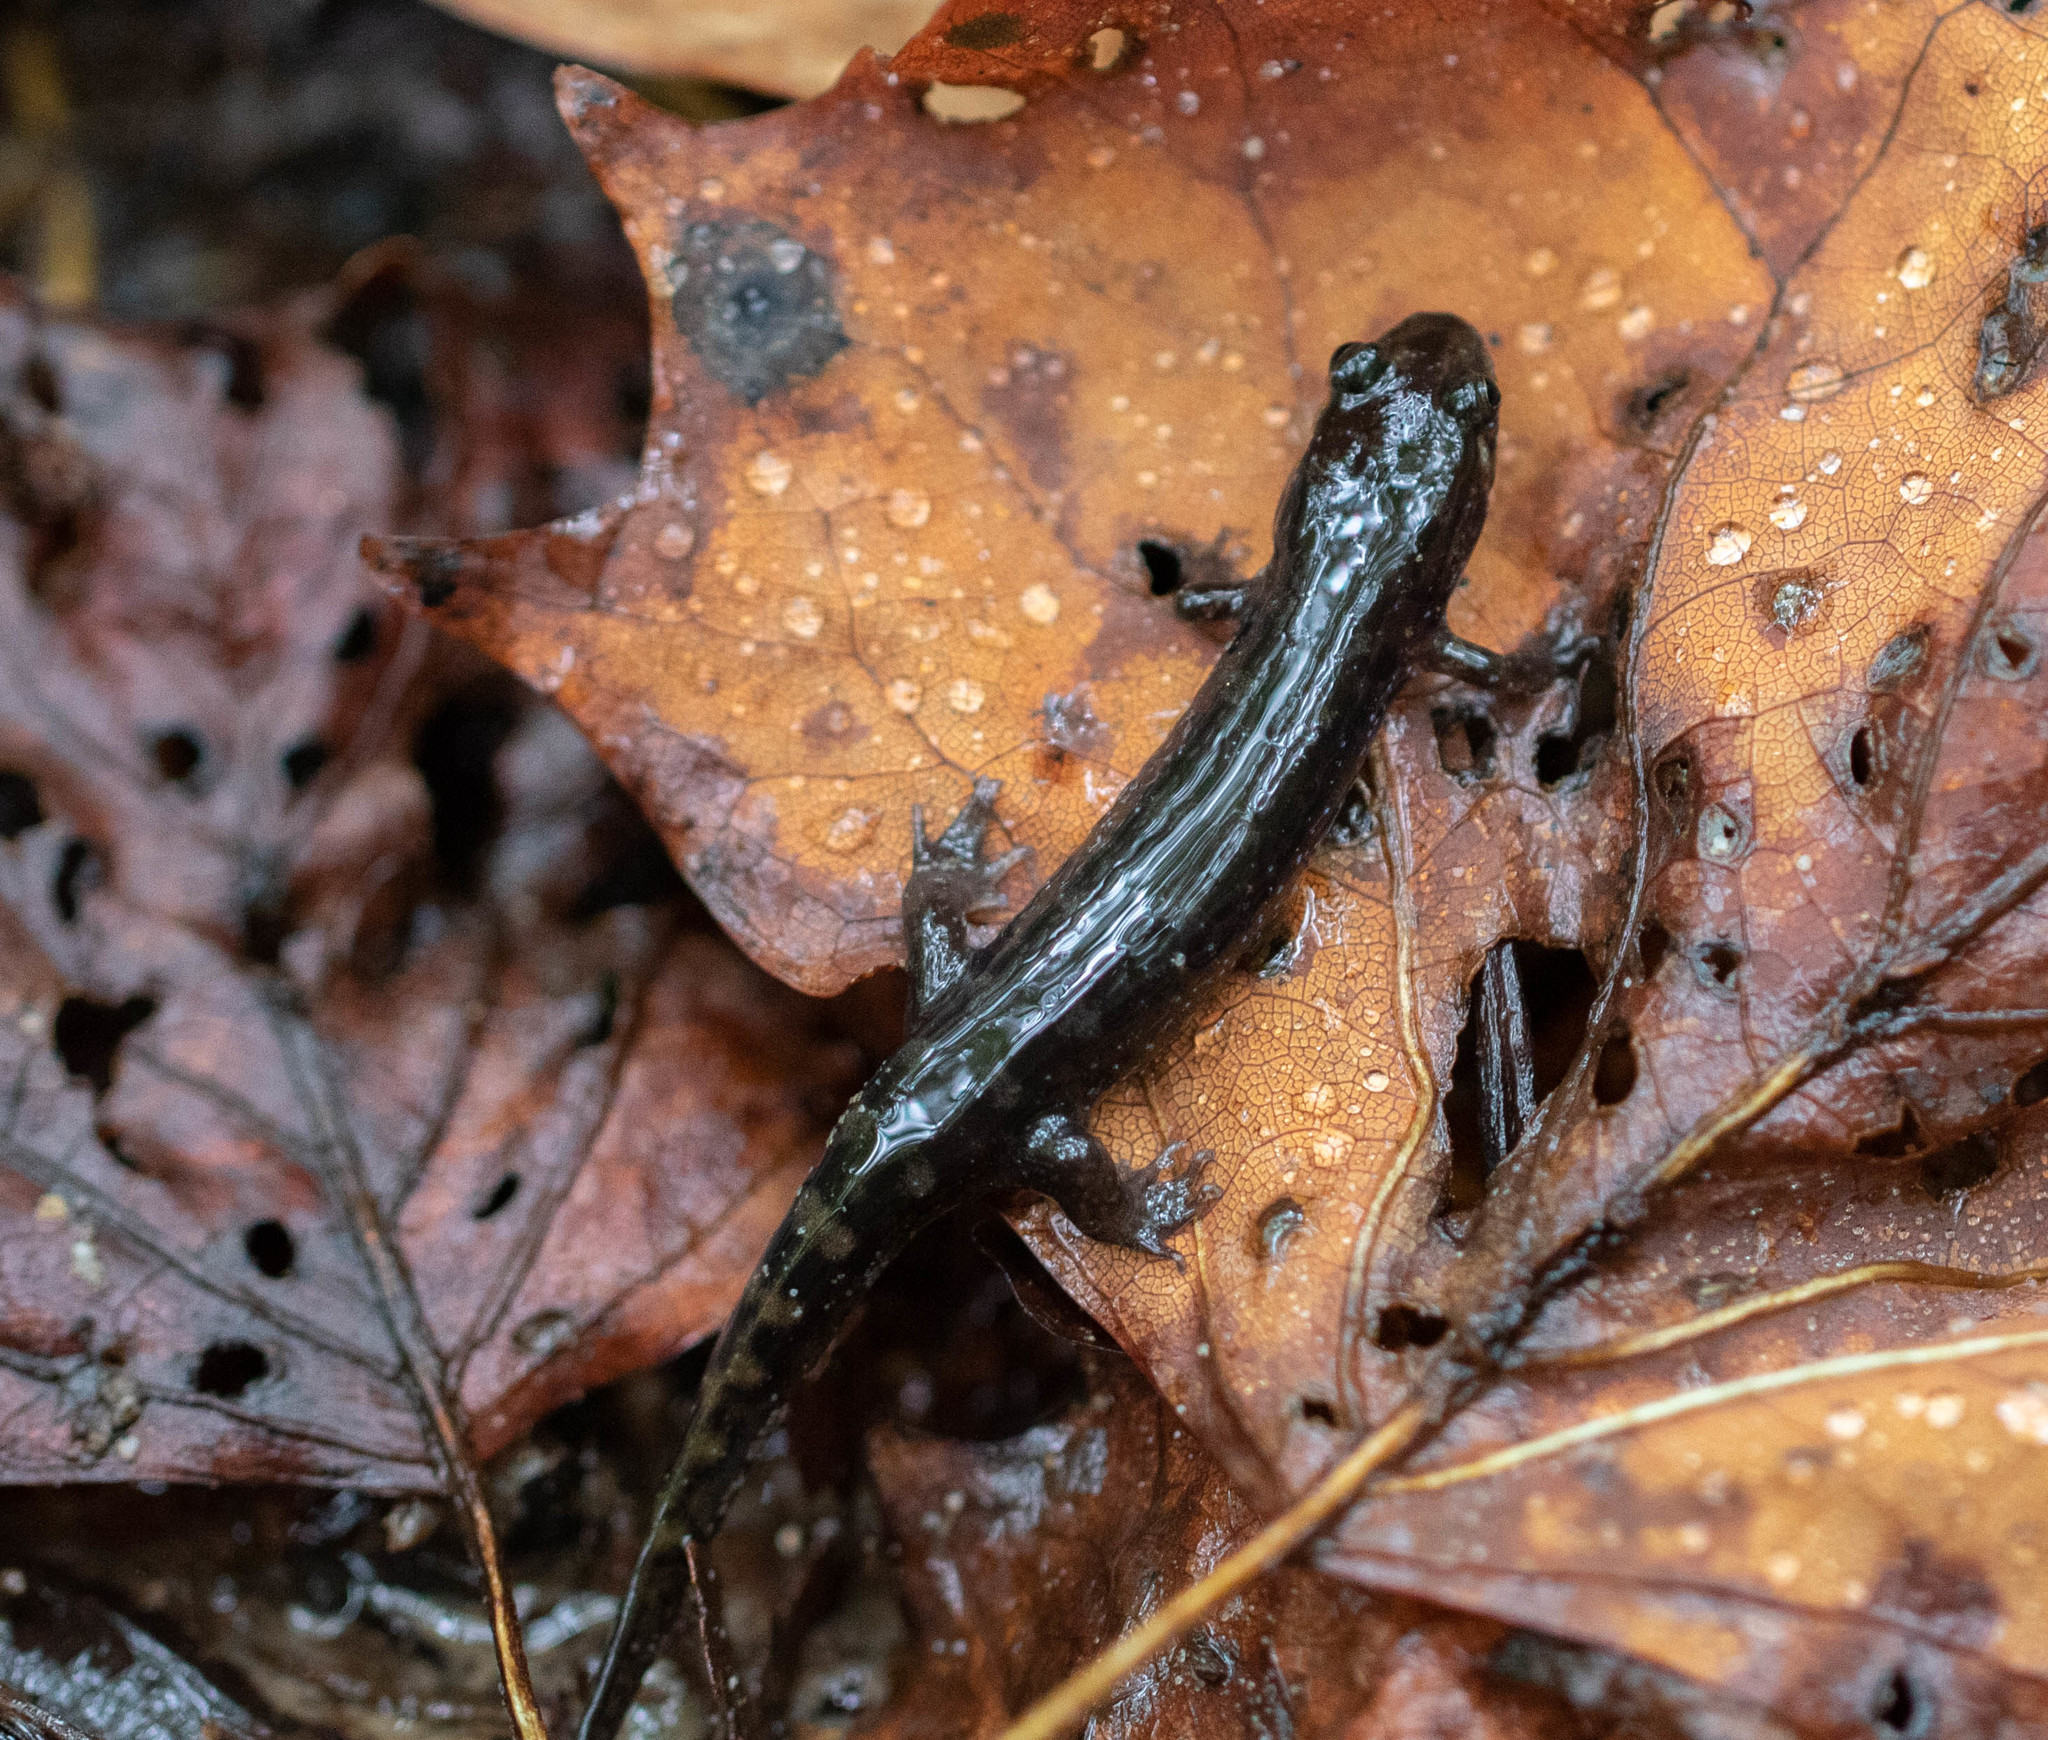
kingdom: Animalia
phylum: Chordata
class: Amphibia
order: Caudata
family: Plethodontidae
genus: Desmognathus
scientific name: Desmognathus monticola
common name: Seal salamander
